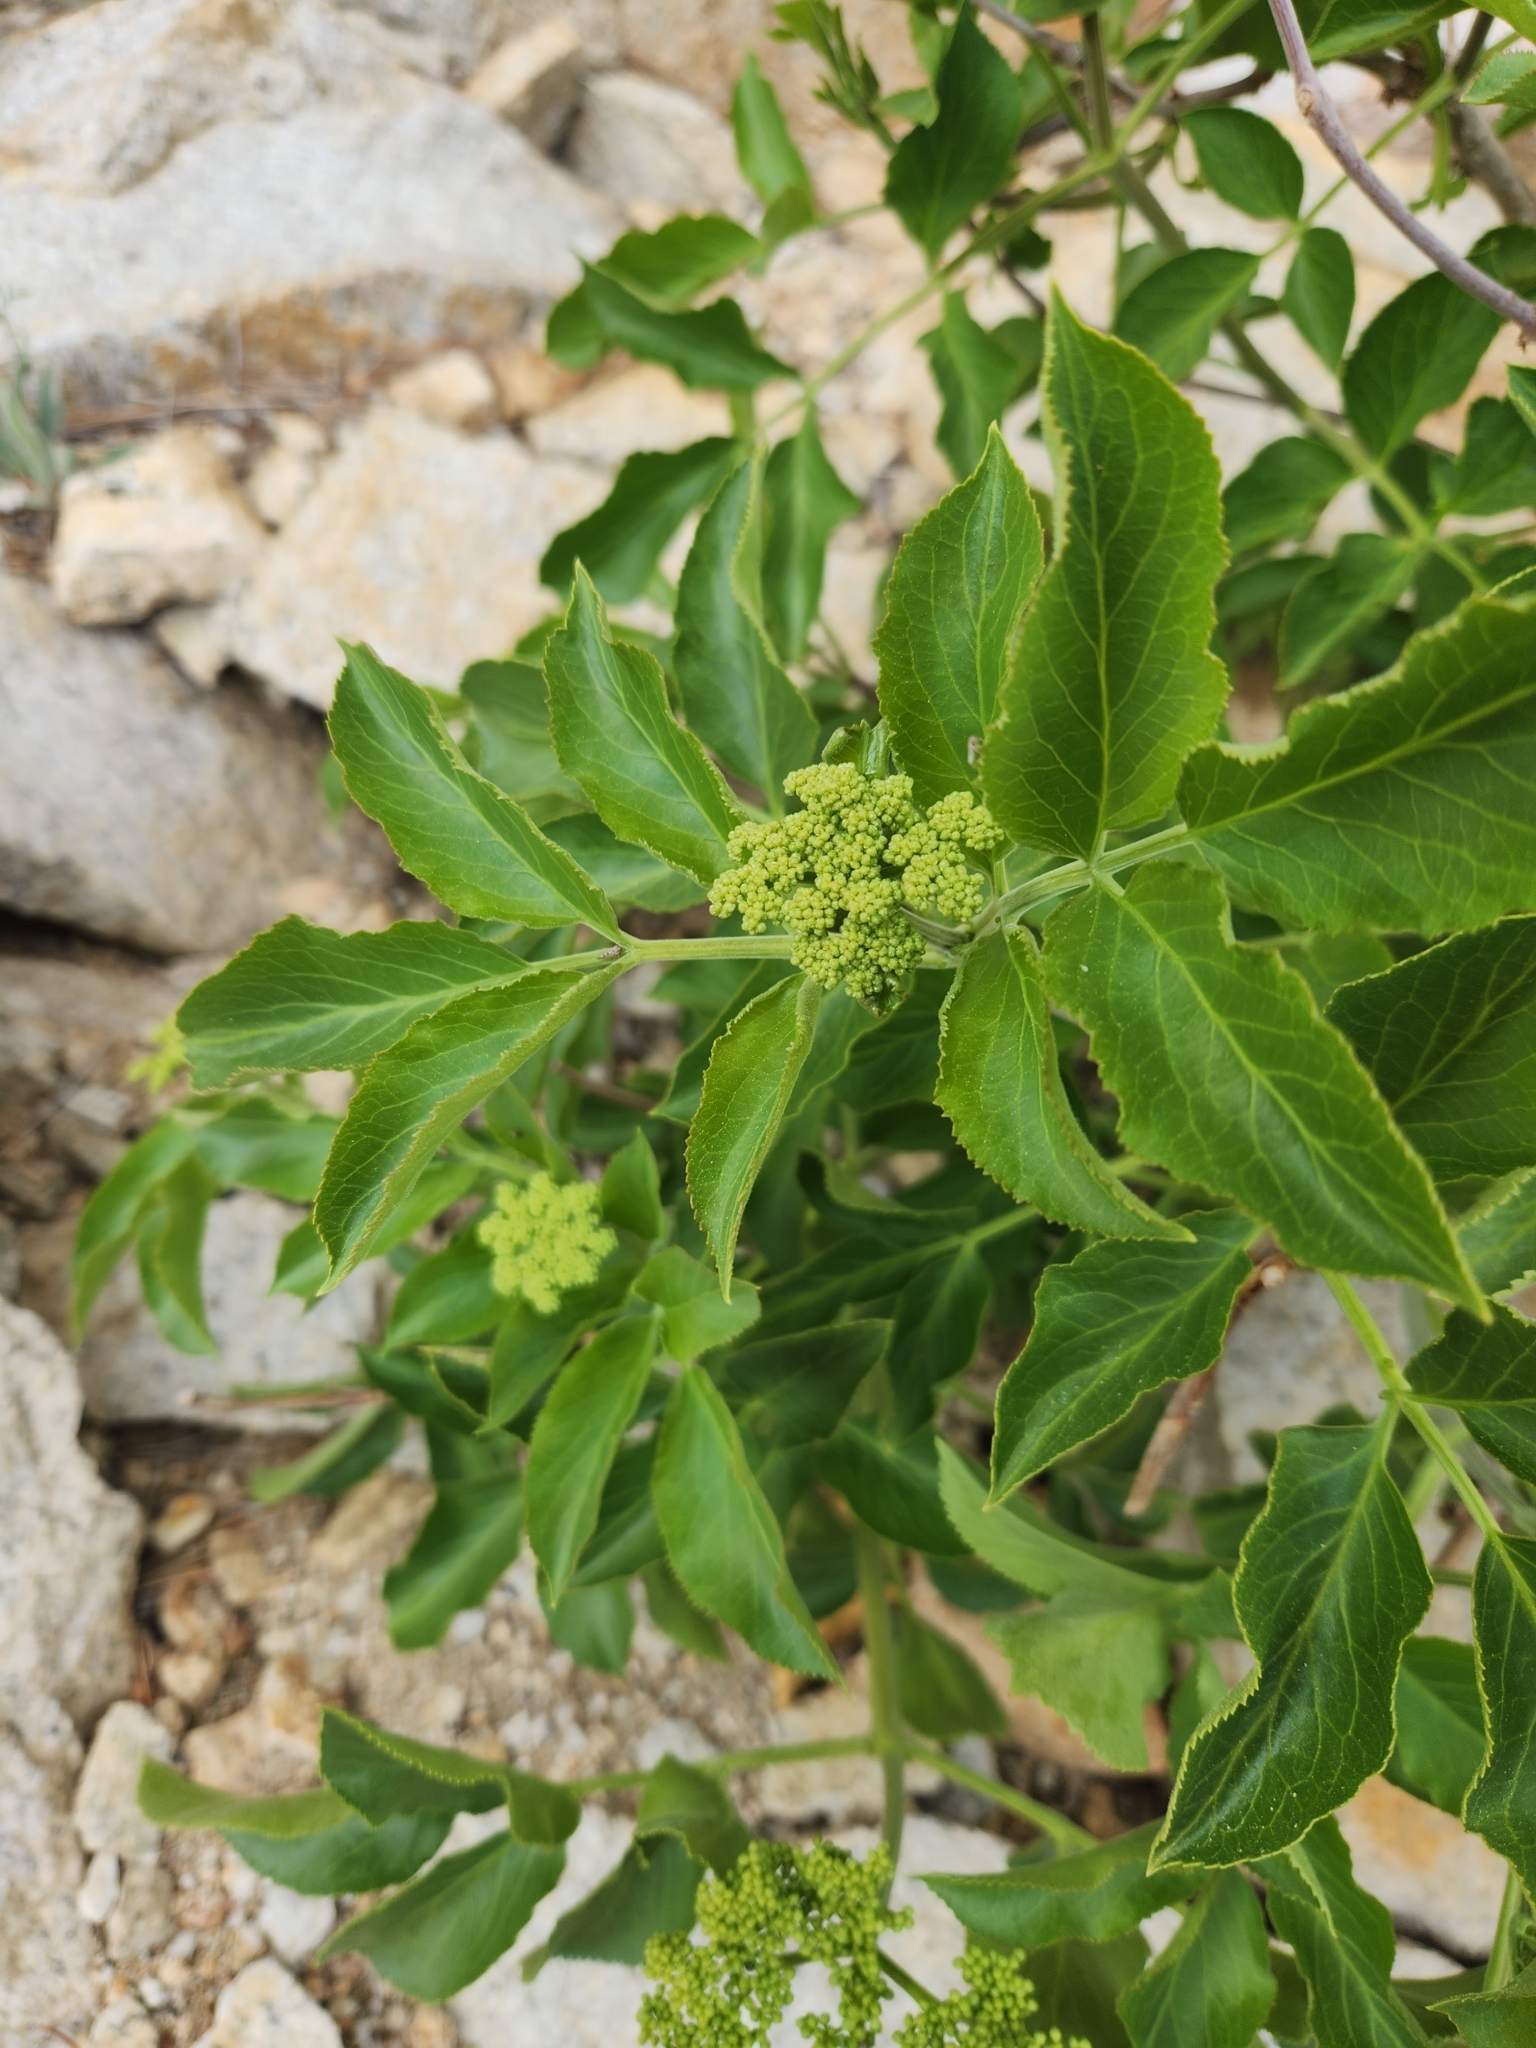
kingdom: Plantae
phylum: Tracheophyta
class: Magnoliopsida
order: Dipsacales
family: Viburnaceae
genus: Sambucus
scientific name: Sambucus cerulea
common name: Blue elder
